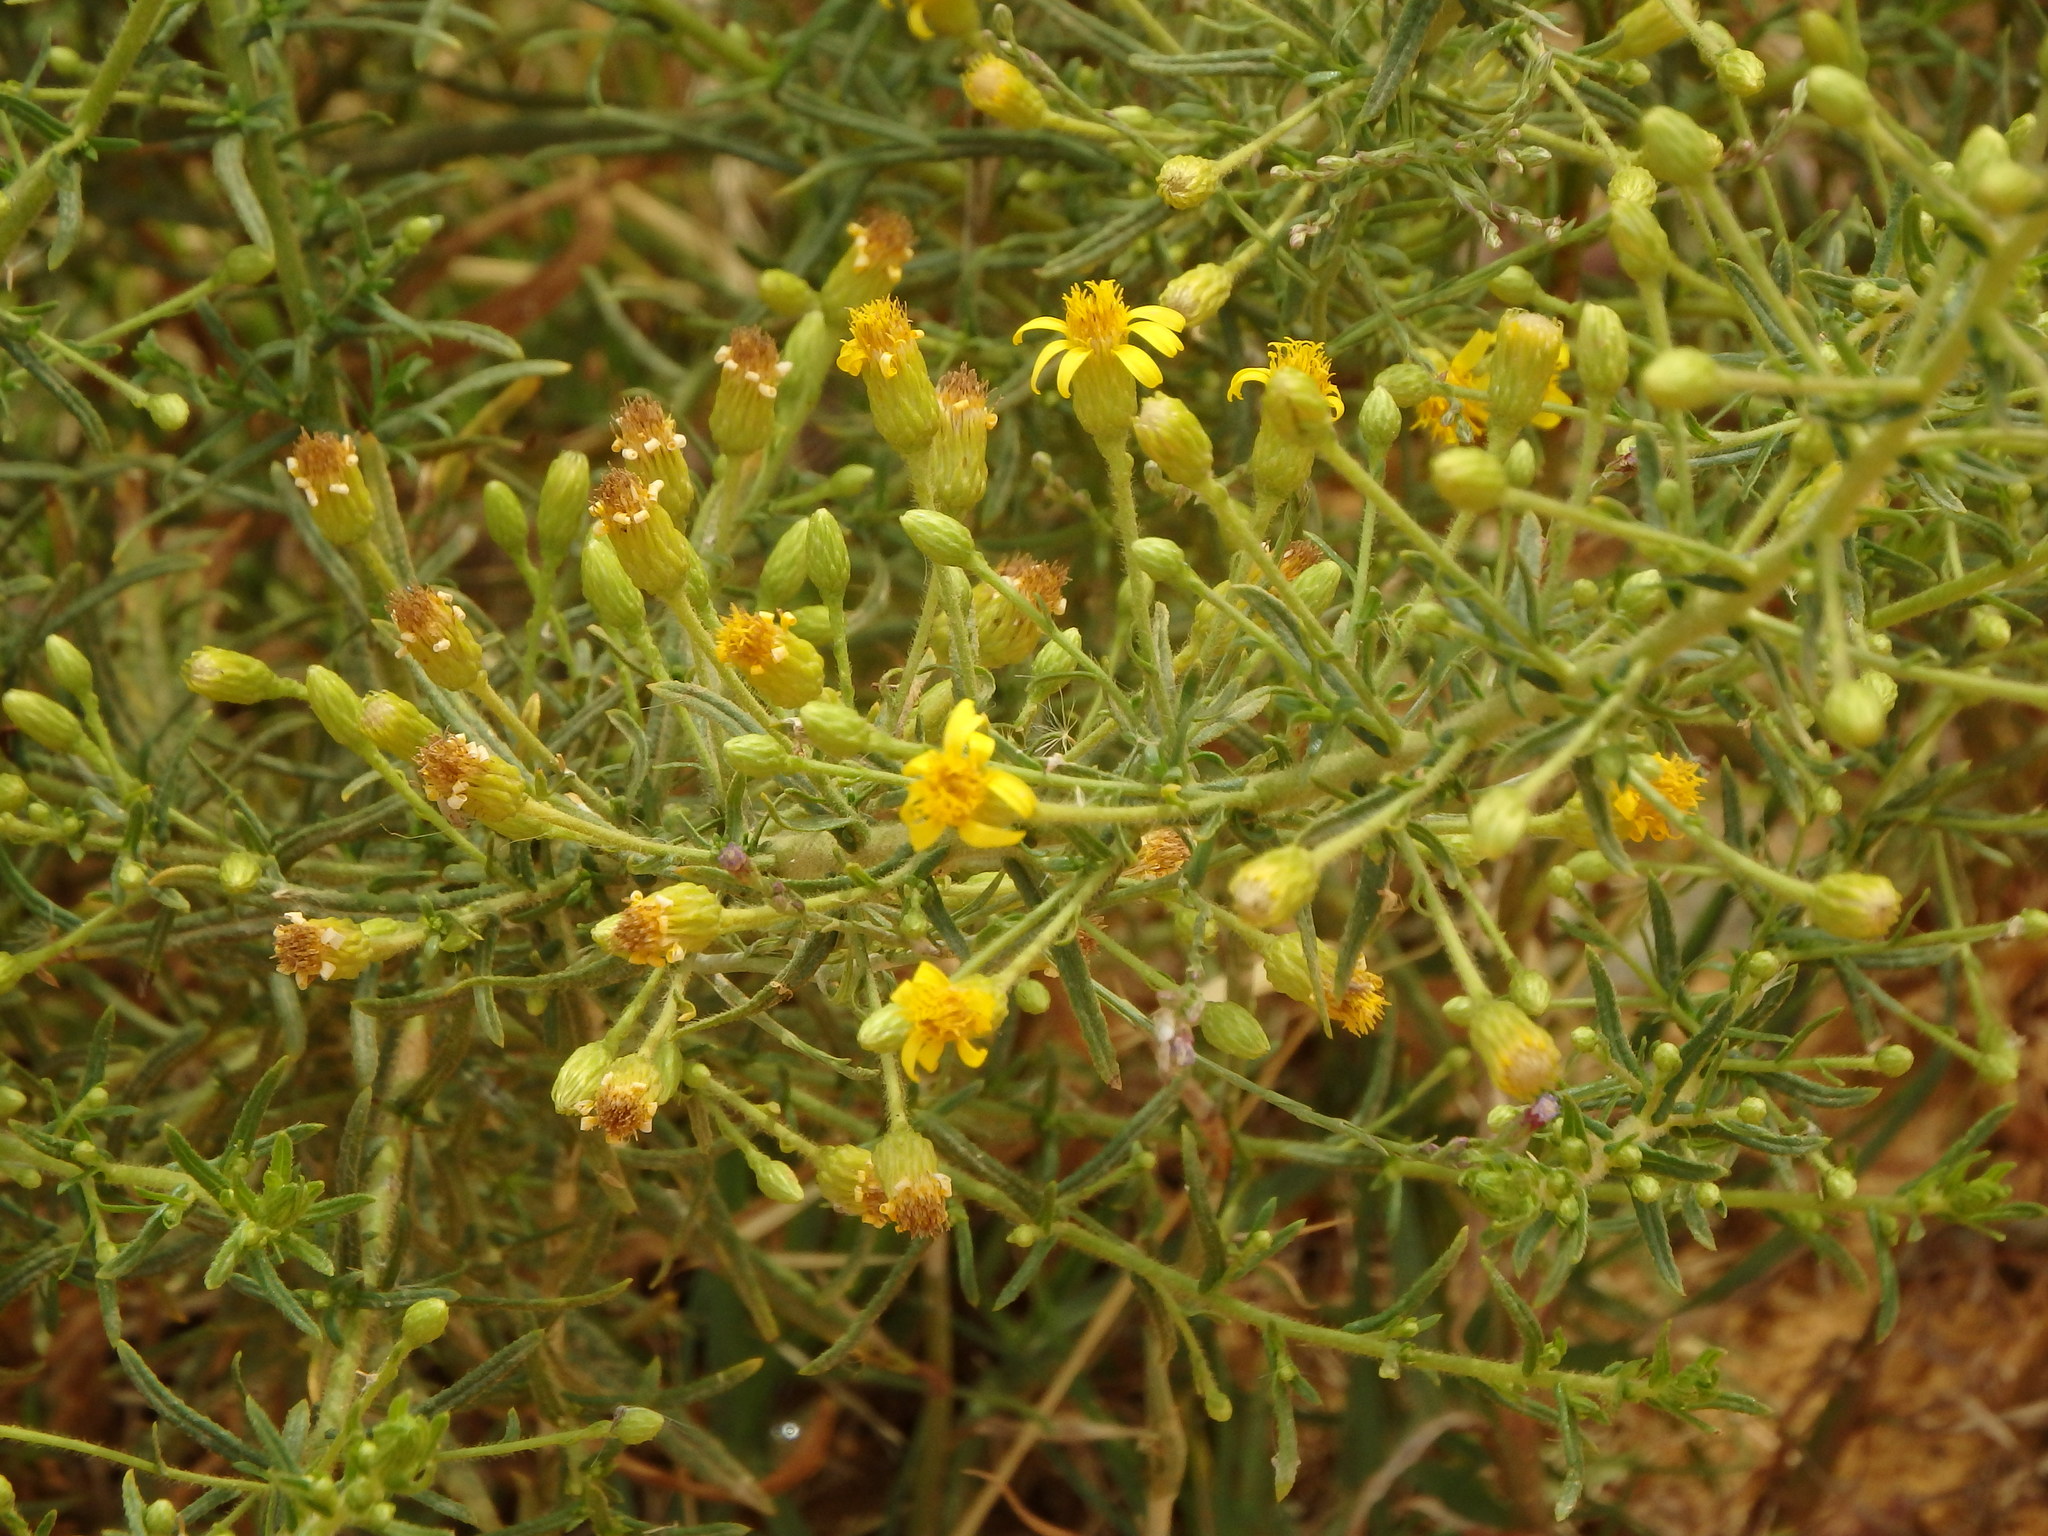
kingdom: Plantae
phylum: Tracheophyta
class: Magnoliopsida
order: Asterales
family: Asteraceae
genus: Dittrichia
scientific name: Dittrichia viscosa
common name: Woody fleabane
